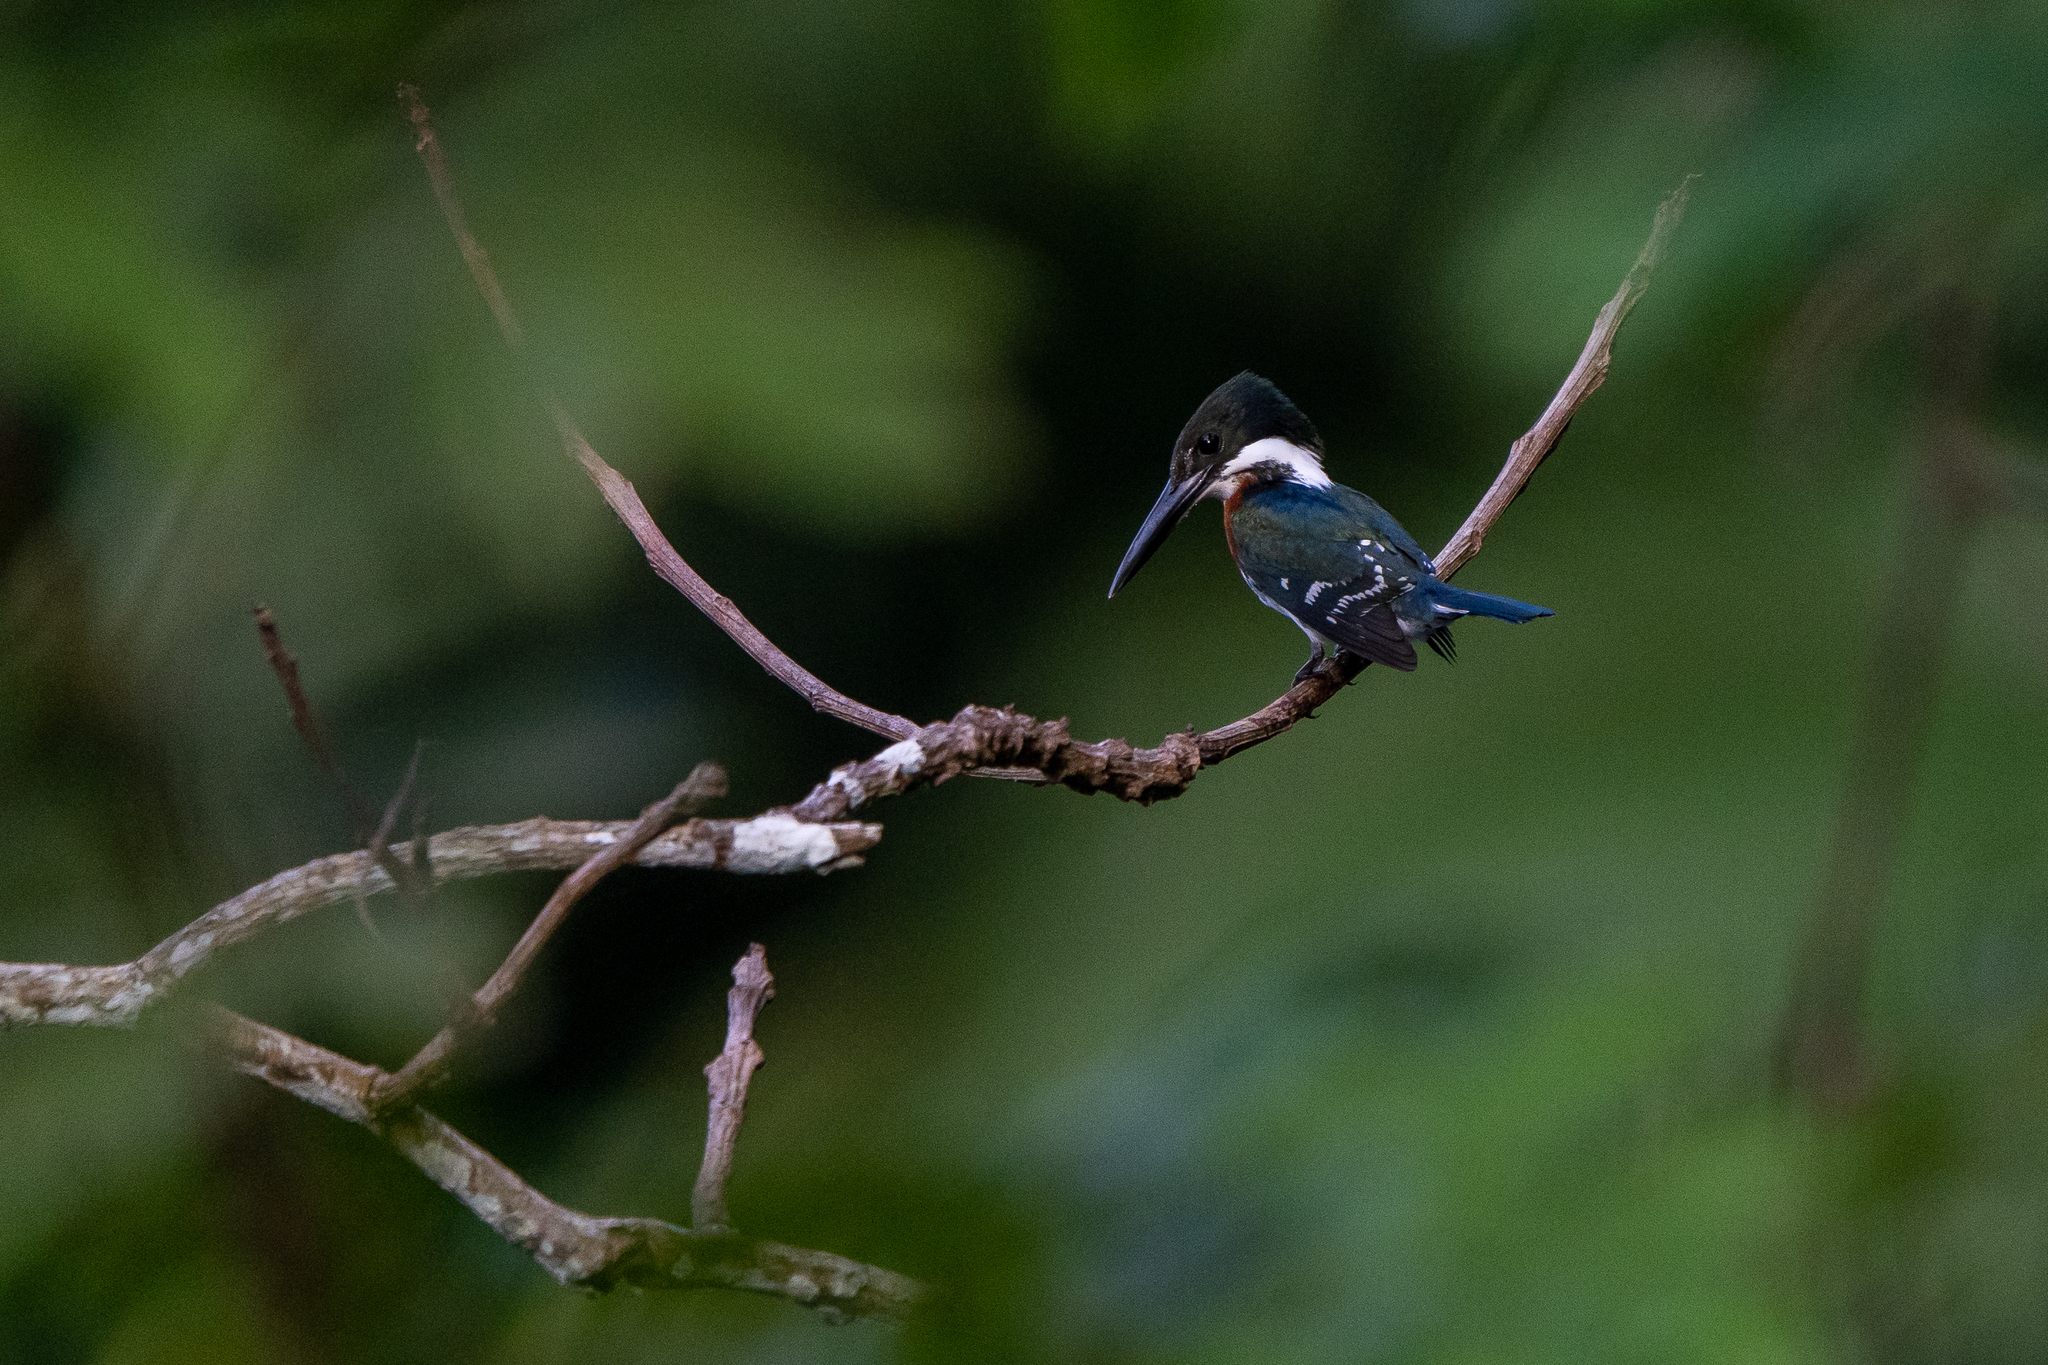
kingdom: Animalia
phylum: Chordata
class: Aves
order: Coraciiformes
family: Alcedinidae
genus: Chloroceryle
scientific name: Chloroceryle americana
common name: Green kingfisher
